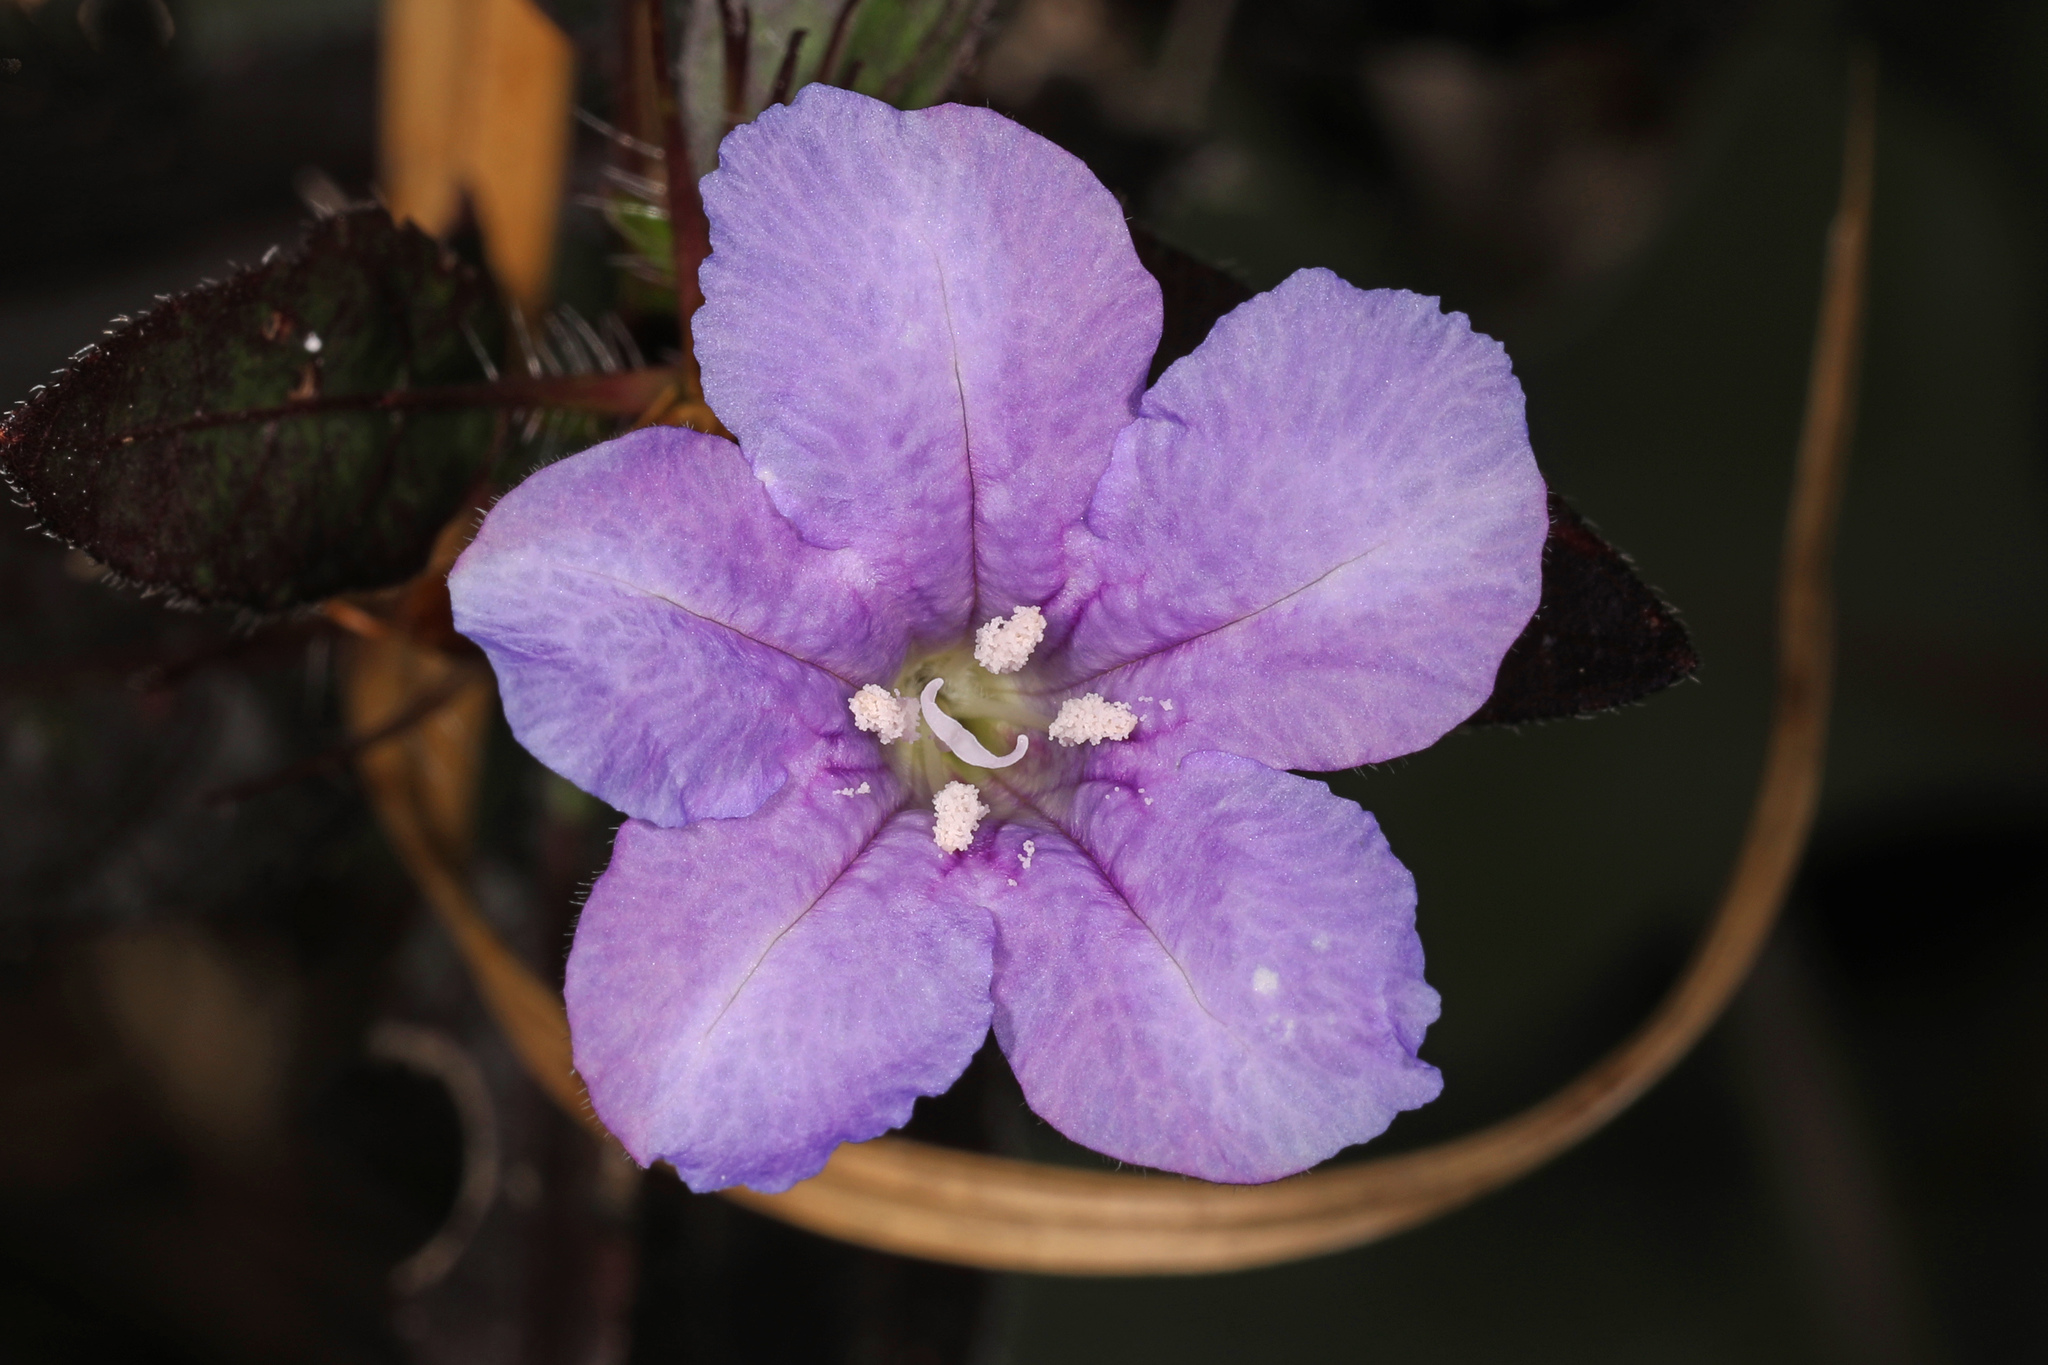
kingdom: Plantae
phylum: Tracheophyta
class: Magnoliopsida
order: Lamiales
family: Acanthaceae
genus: Ruellia
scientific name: Ruellia caroliniensis
